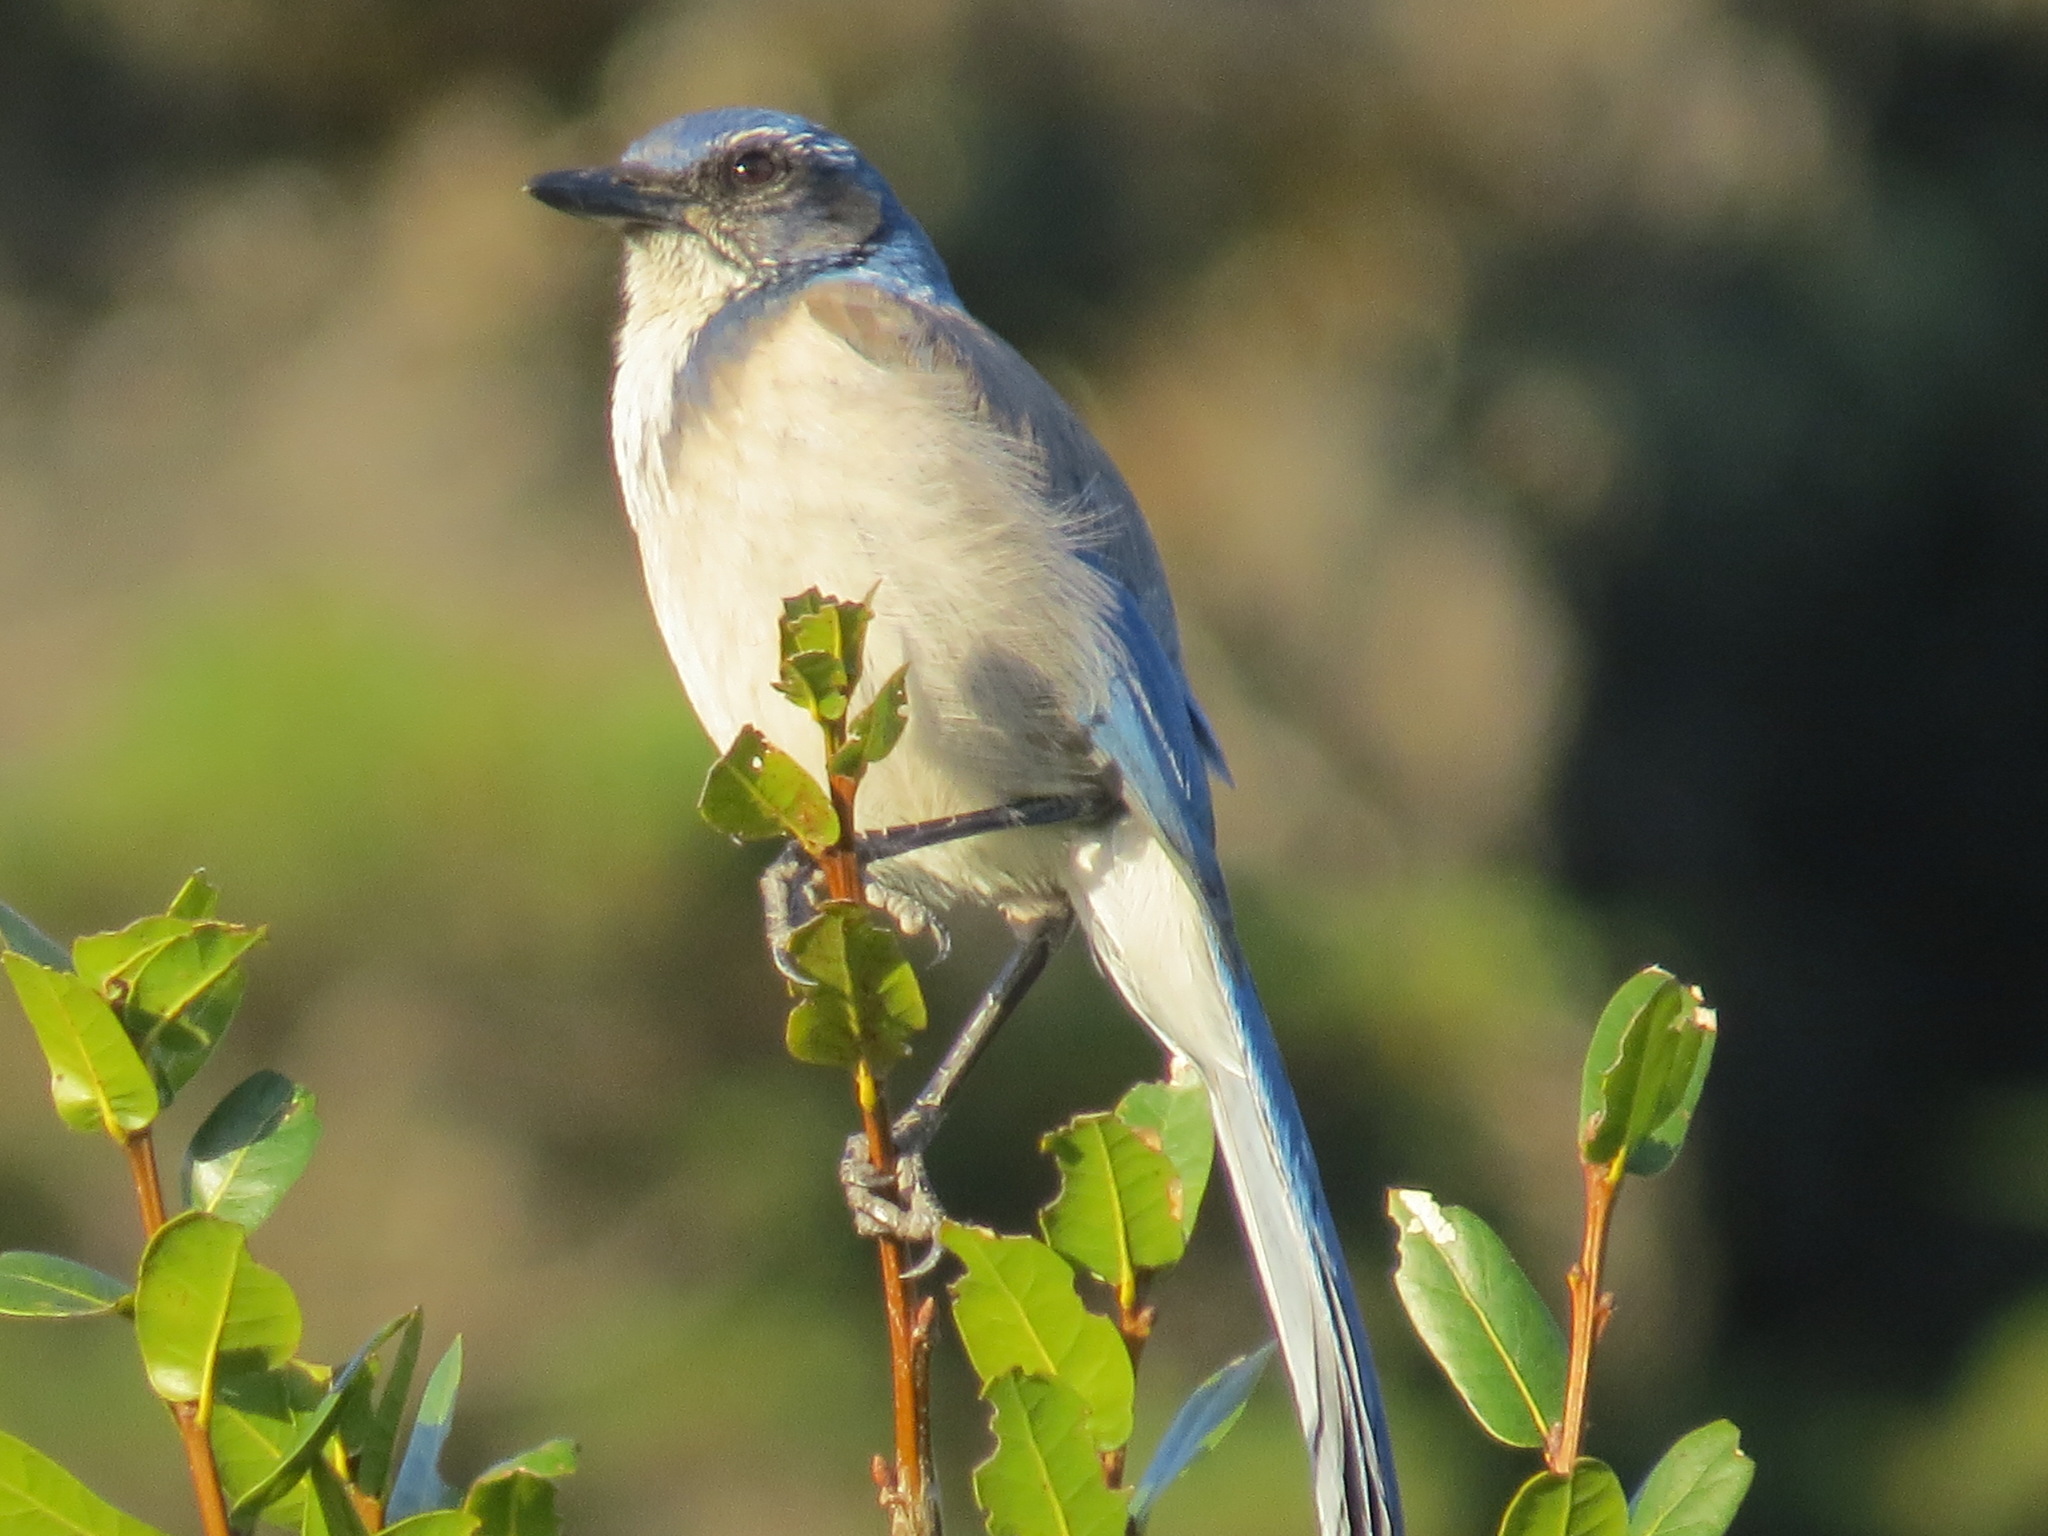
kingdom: Animalia
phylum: Chordata
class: Aves
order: Passeriformes
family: Corvidae
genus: Aphelocoma
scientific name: Aphelocoma californica
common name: California scrub-jay
